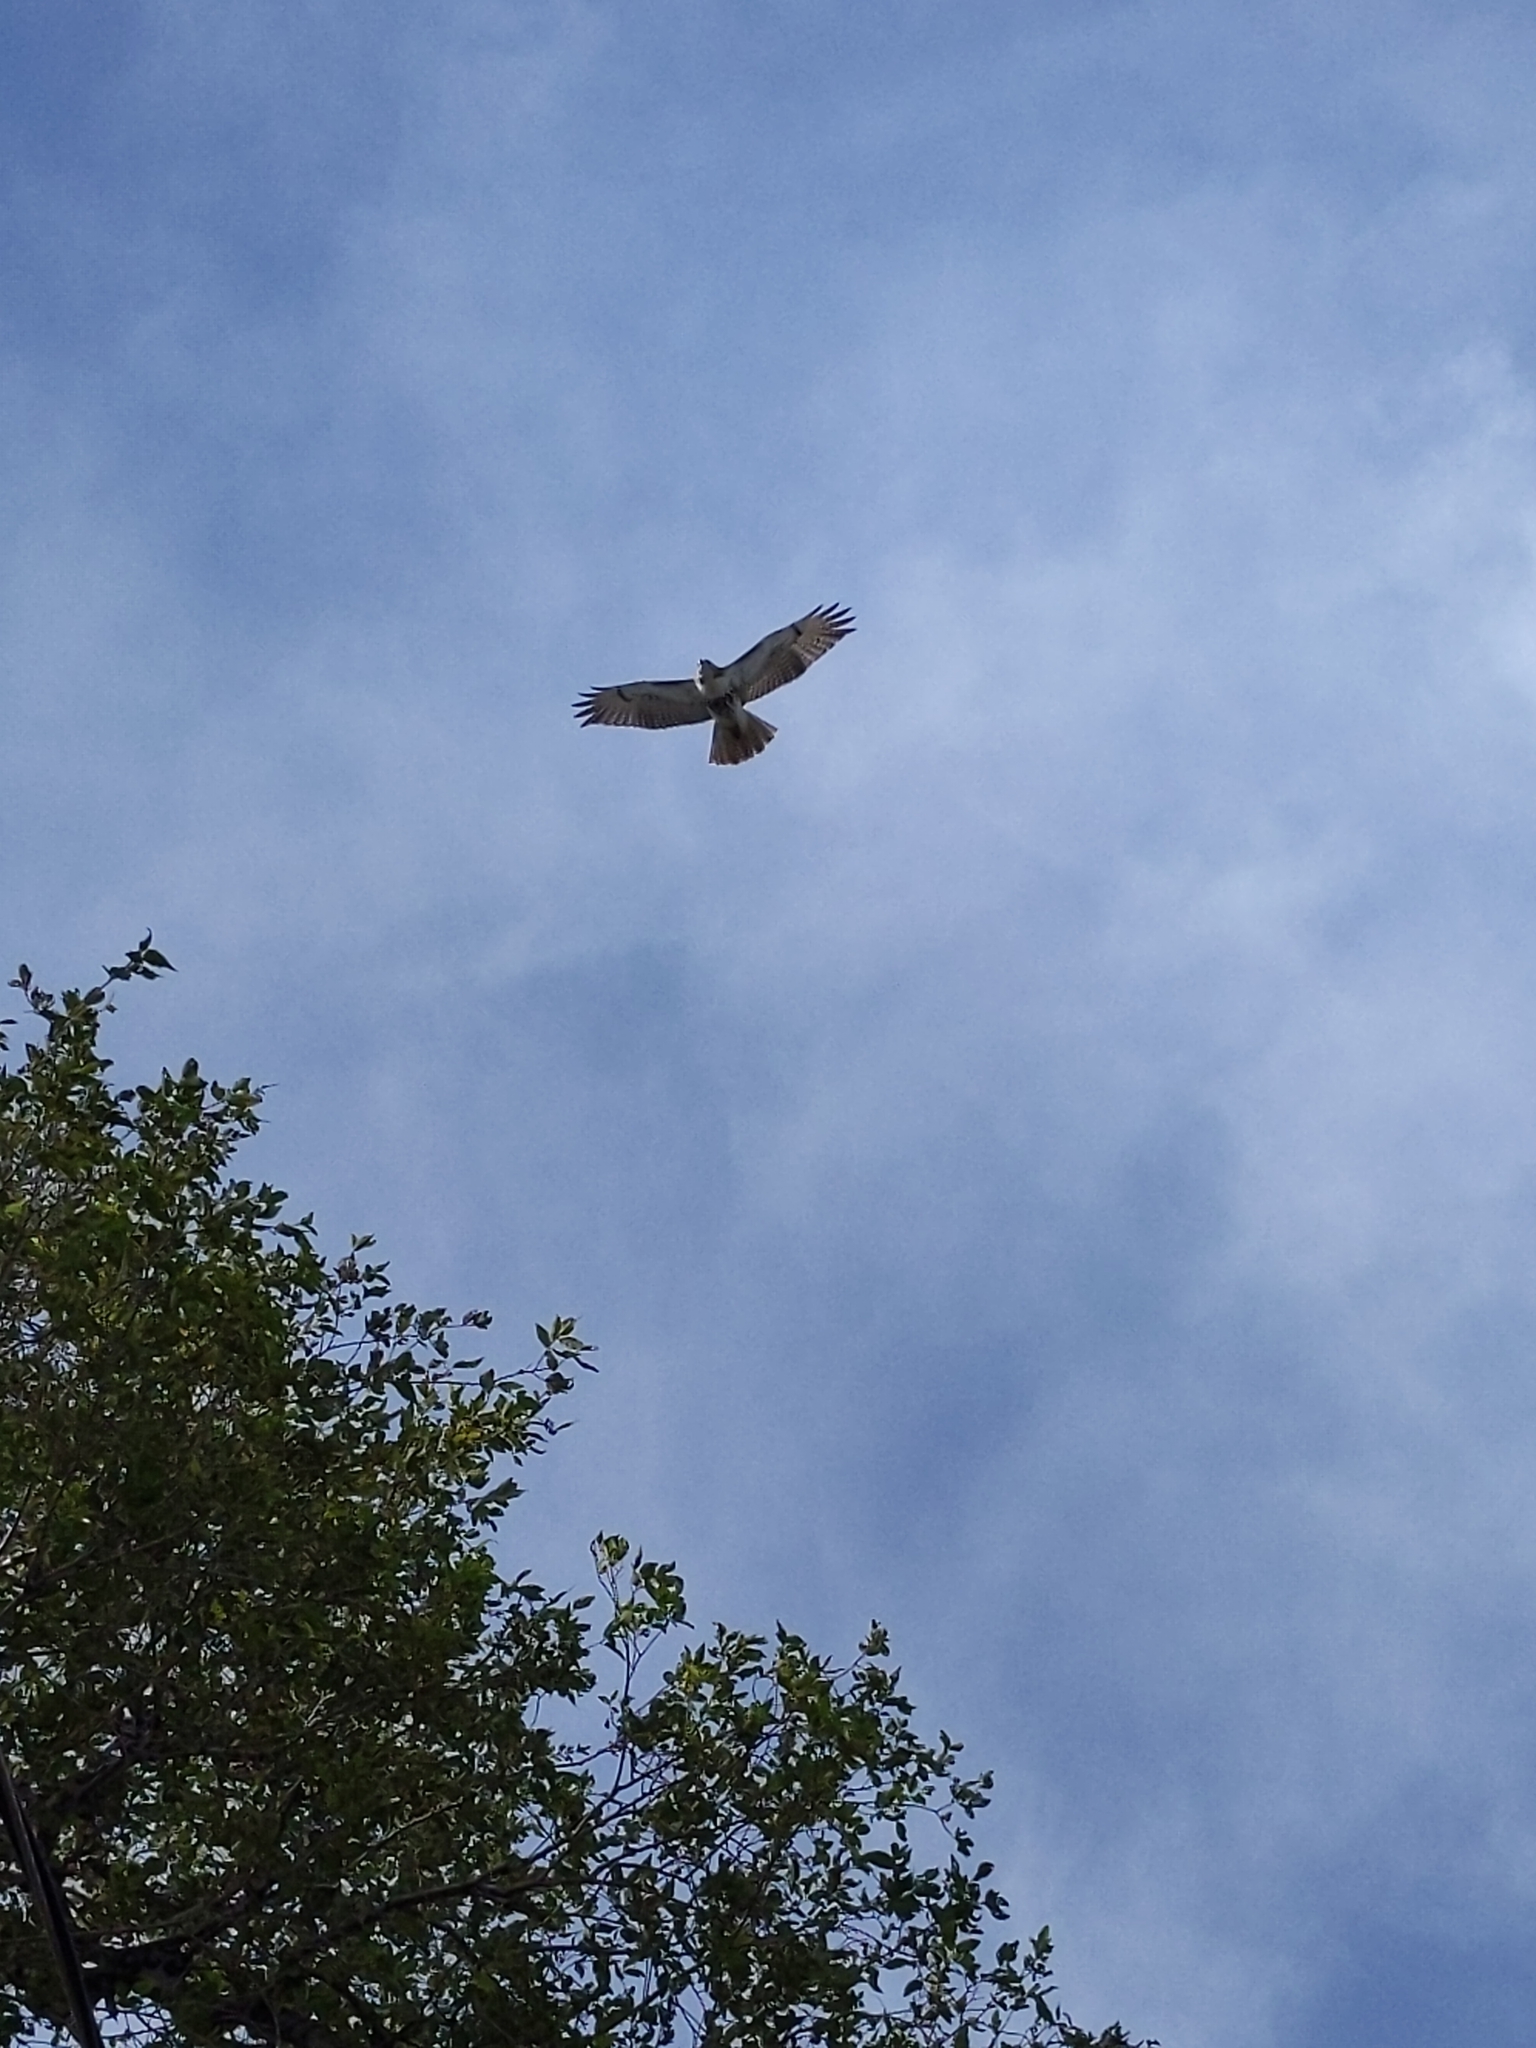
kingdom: Animalia
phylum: Chordata
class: Aves
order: Accipitriformes
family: Accipitridae
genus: Buteo
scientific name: Buteo jamaicensis
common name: Red-tailed hawk
